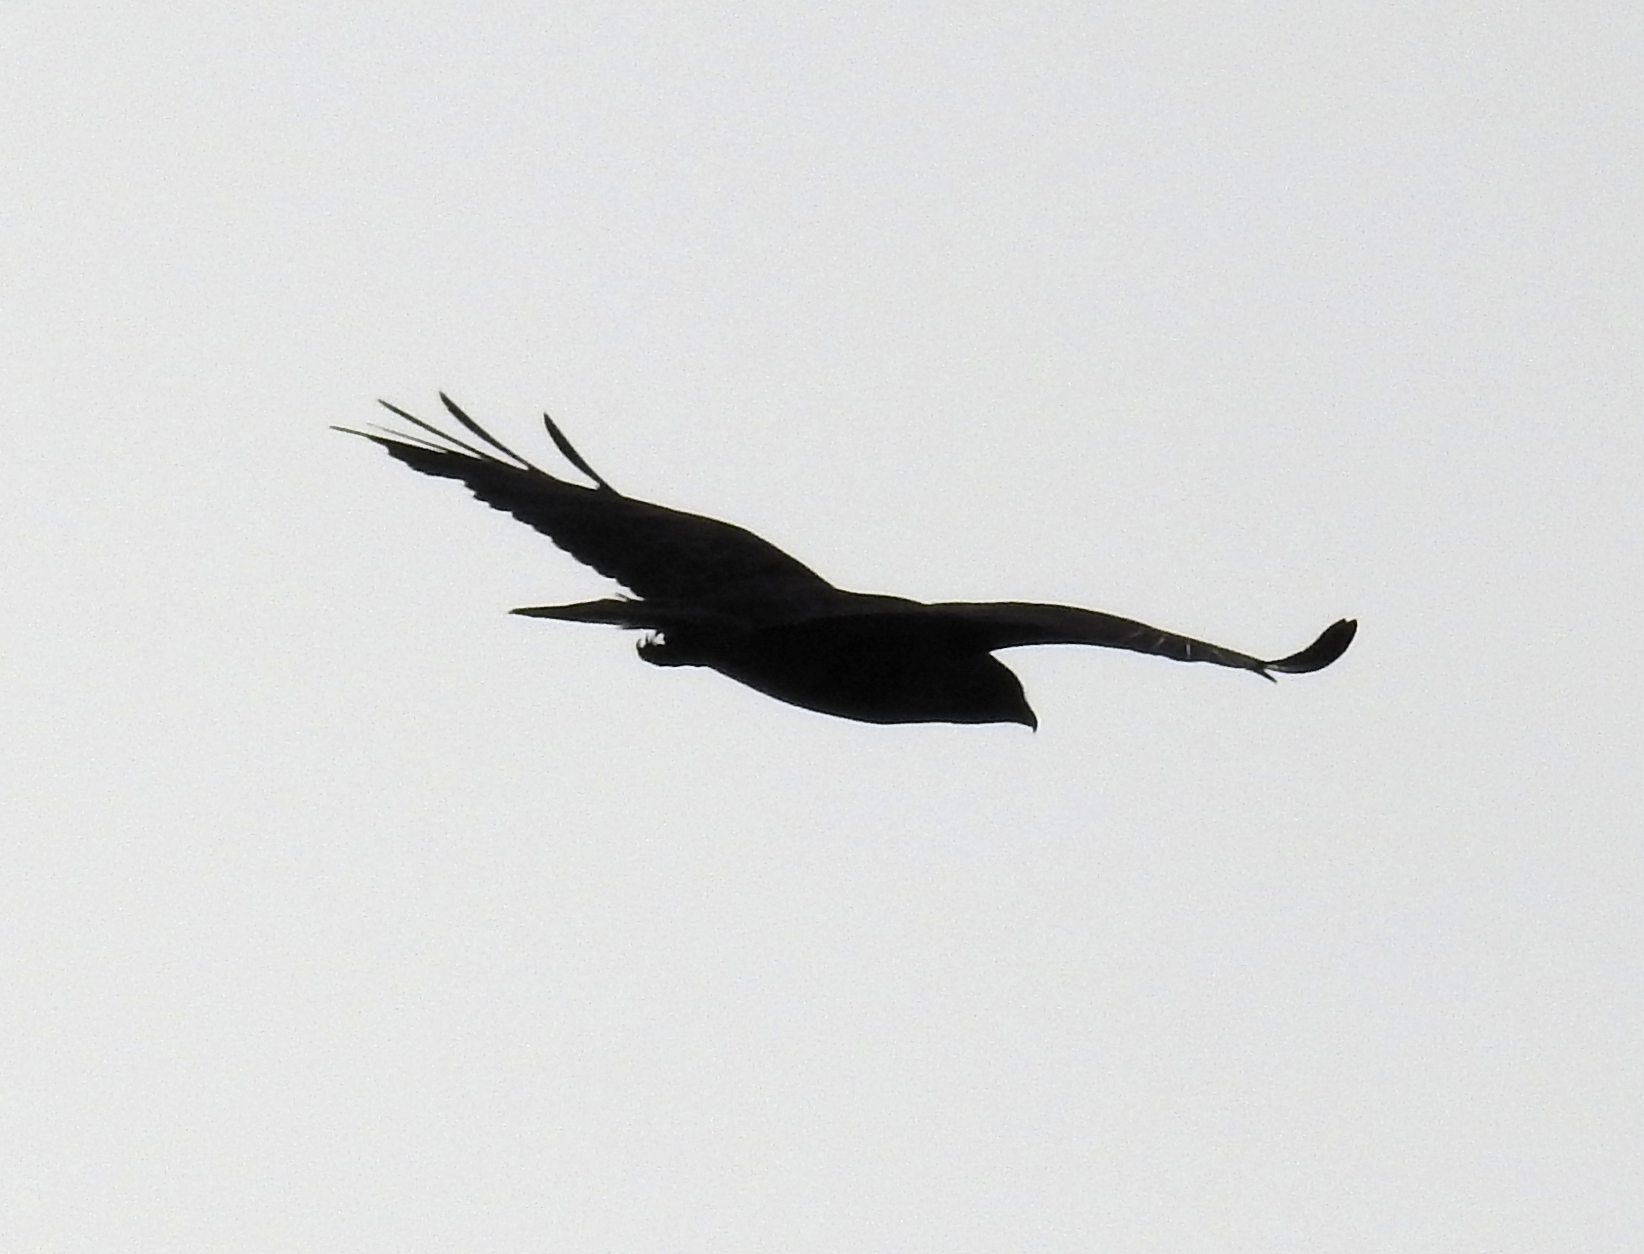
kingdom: Animalia
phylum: Chordata
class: Aves
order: Accipitriformes
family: Accipitridae
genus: Buteo
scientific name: Buteo buteo
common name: Common buzzard
